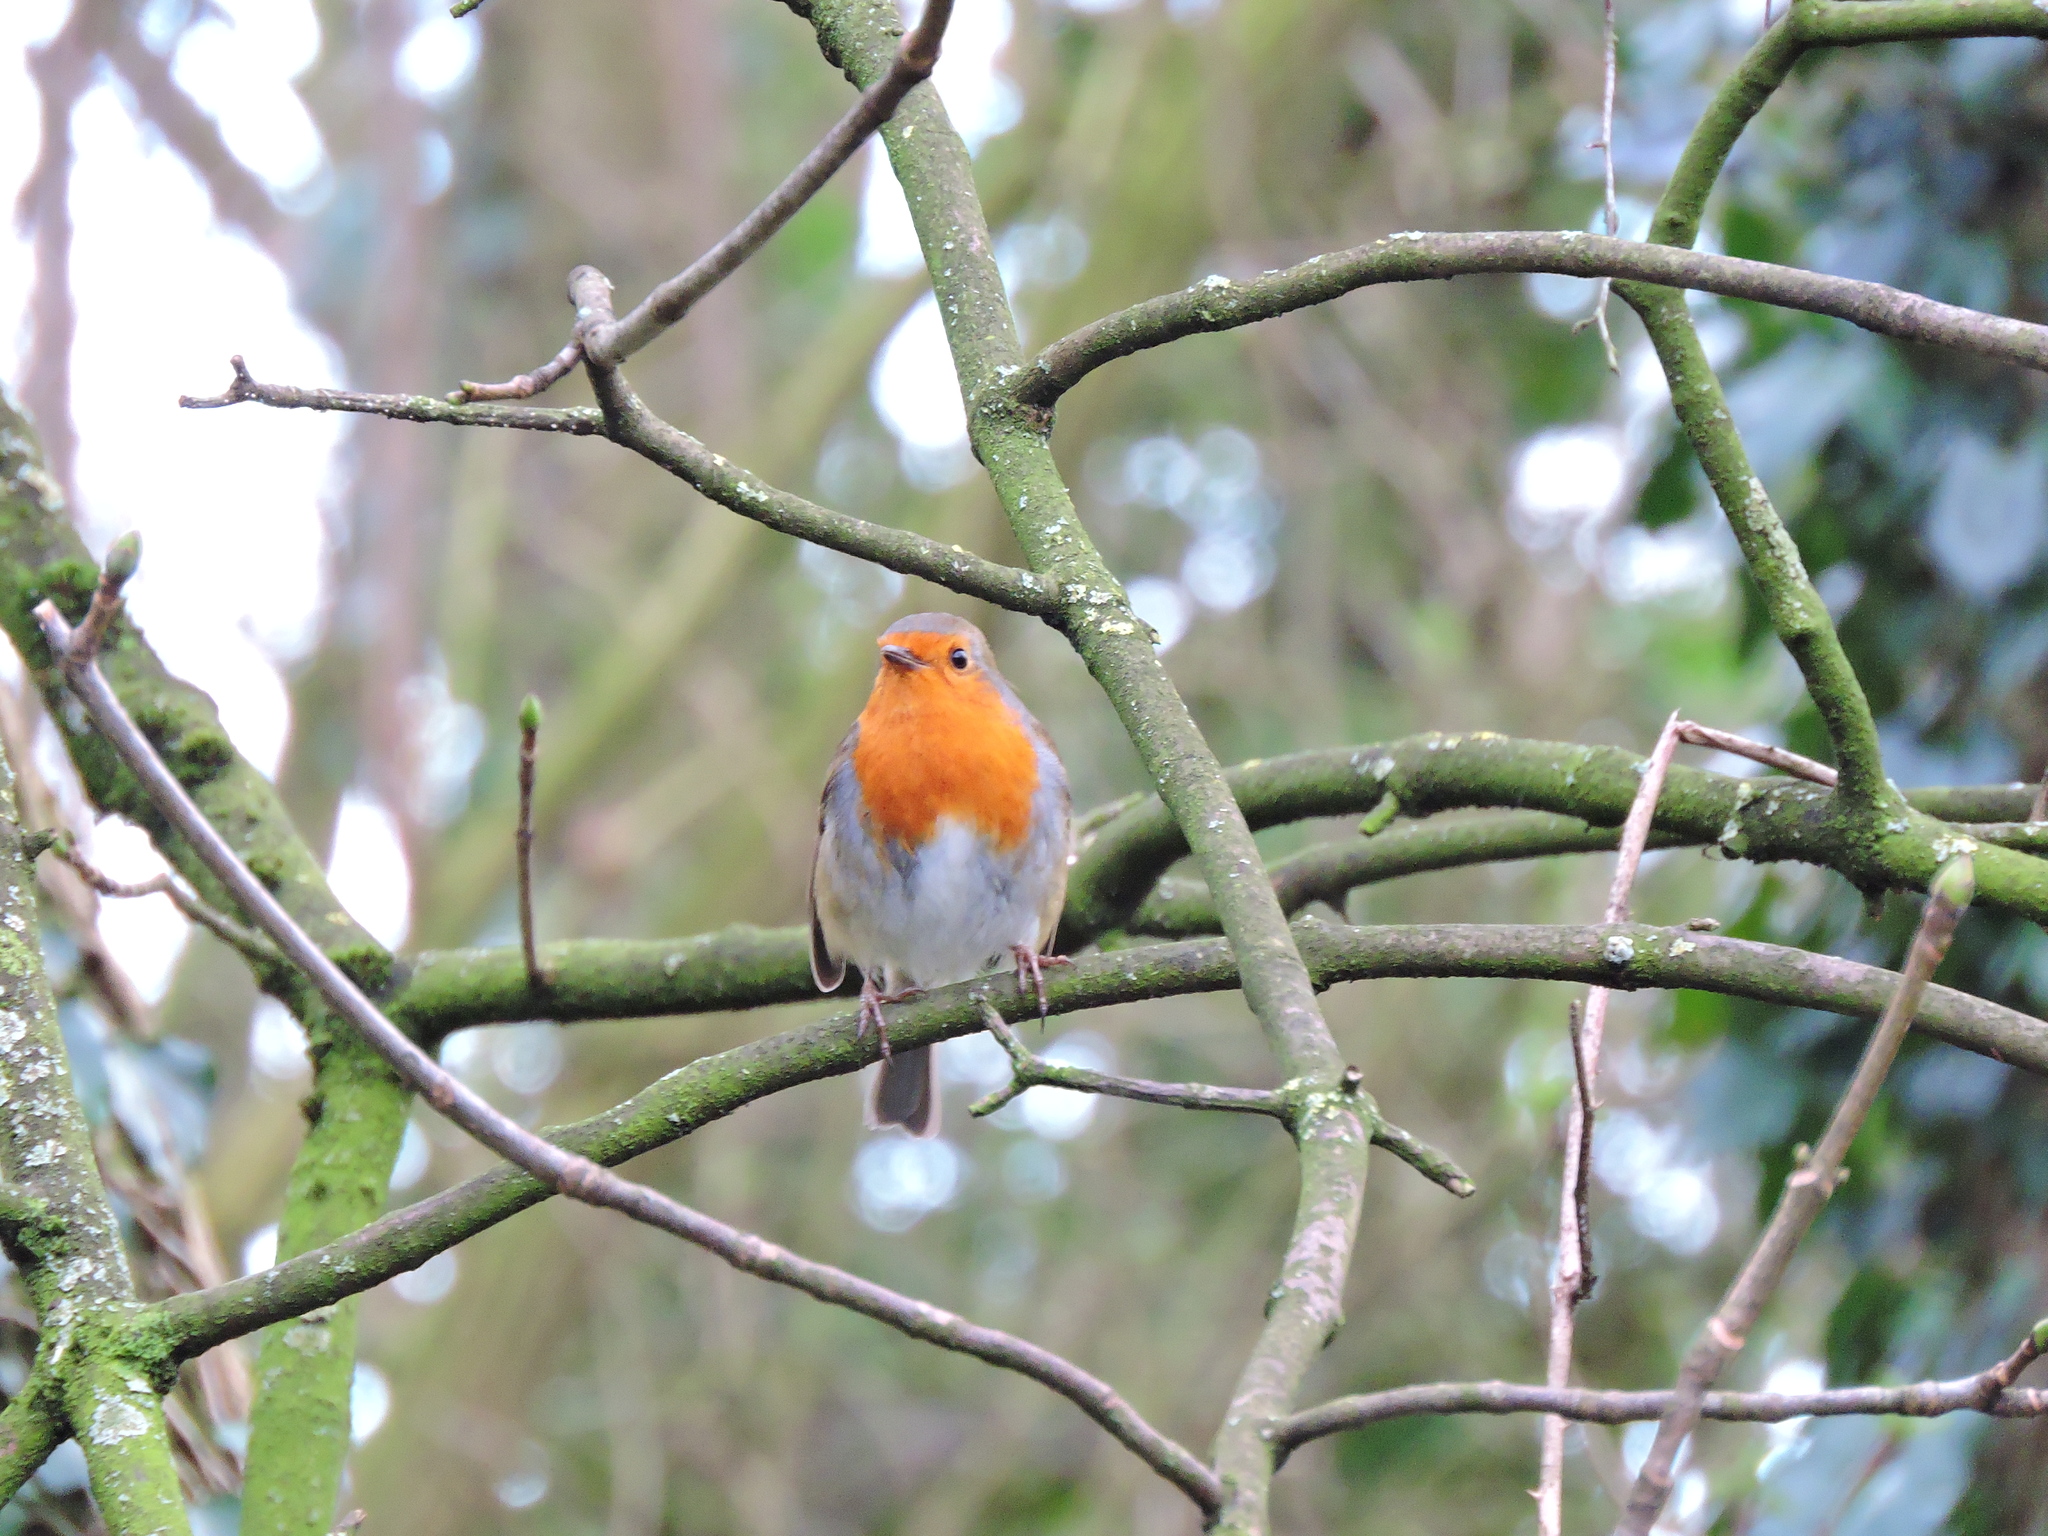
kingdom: Animalia
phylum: Chordata
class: Aves
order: Passeriformes
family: Muscicapidae
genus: Erithacus
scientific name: Erithacus rubecula
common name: European robin
